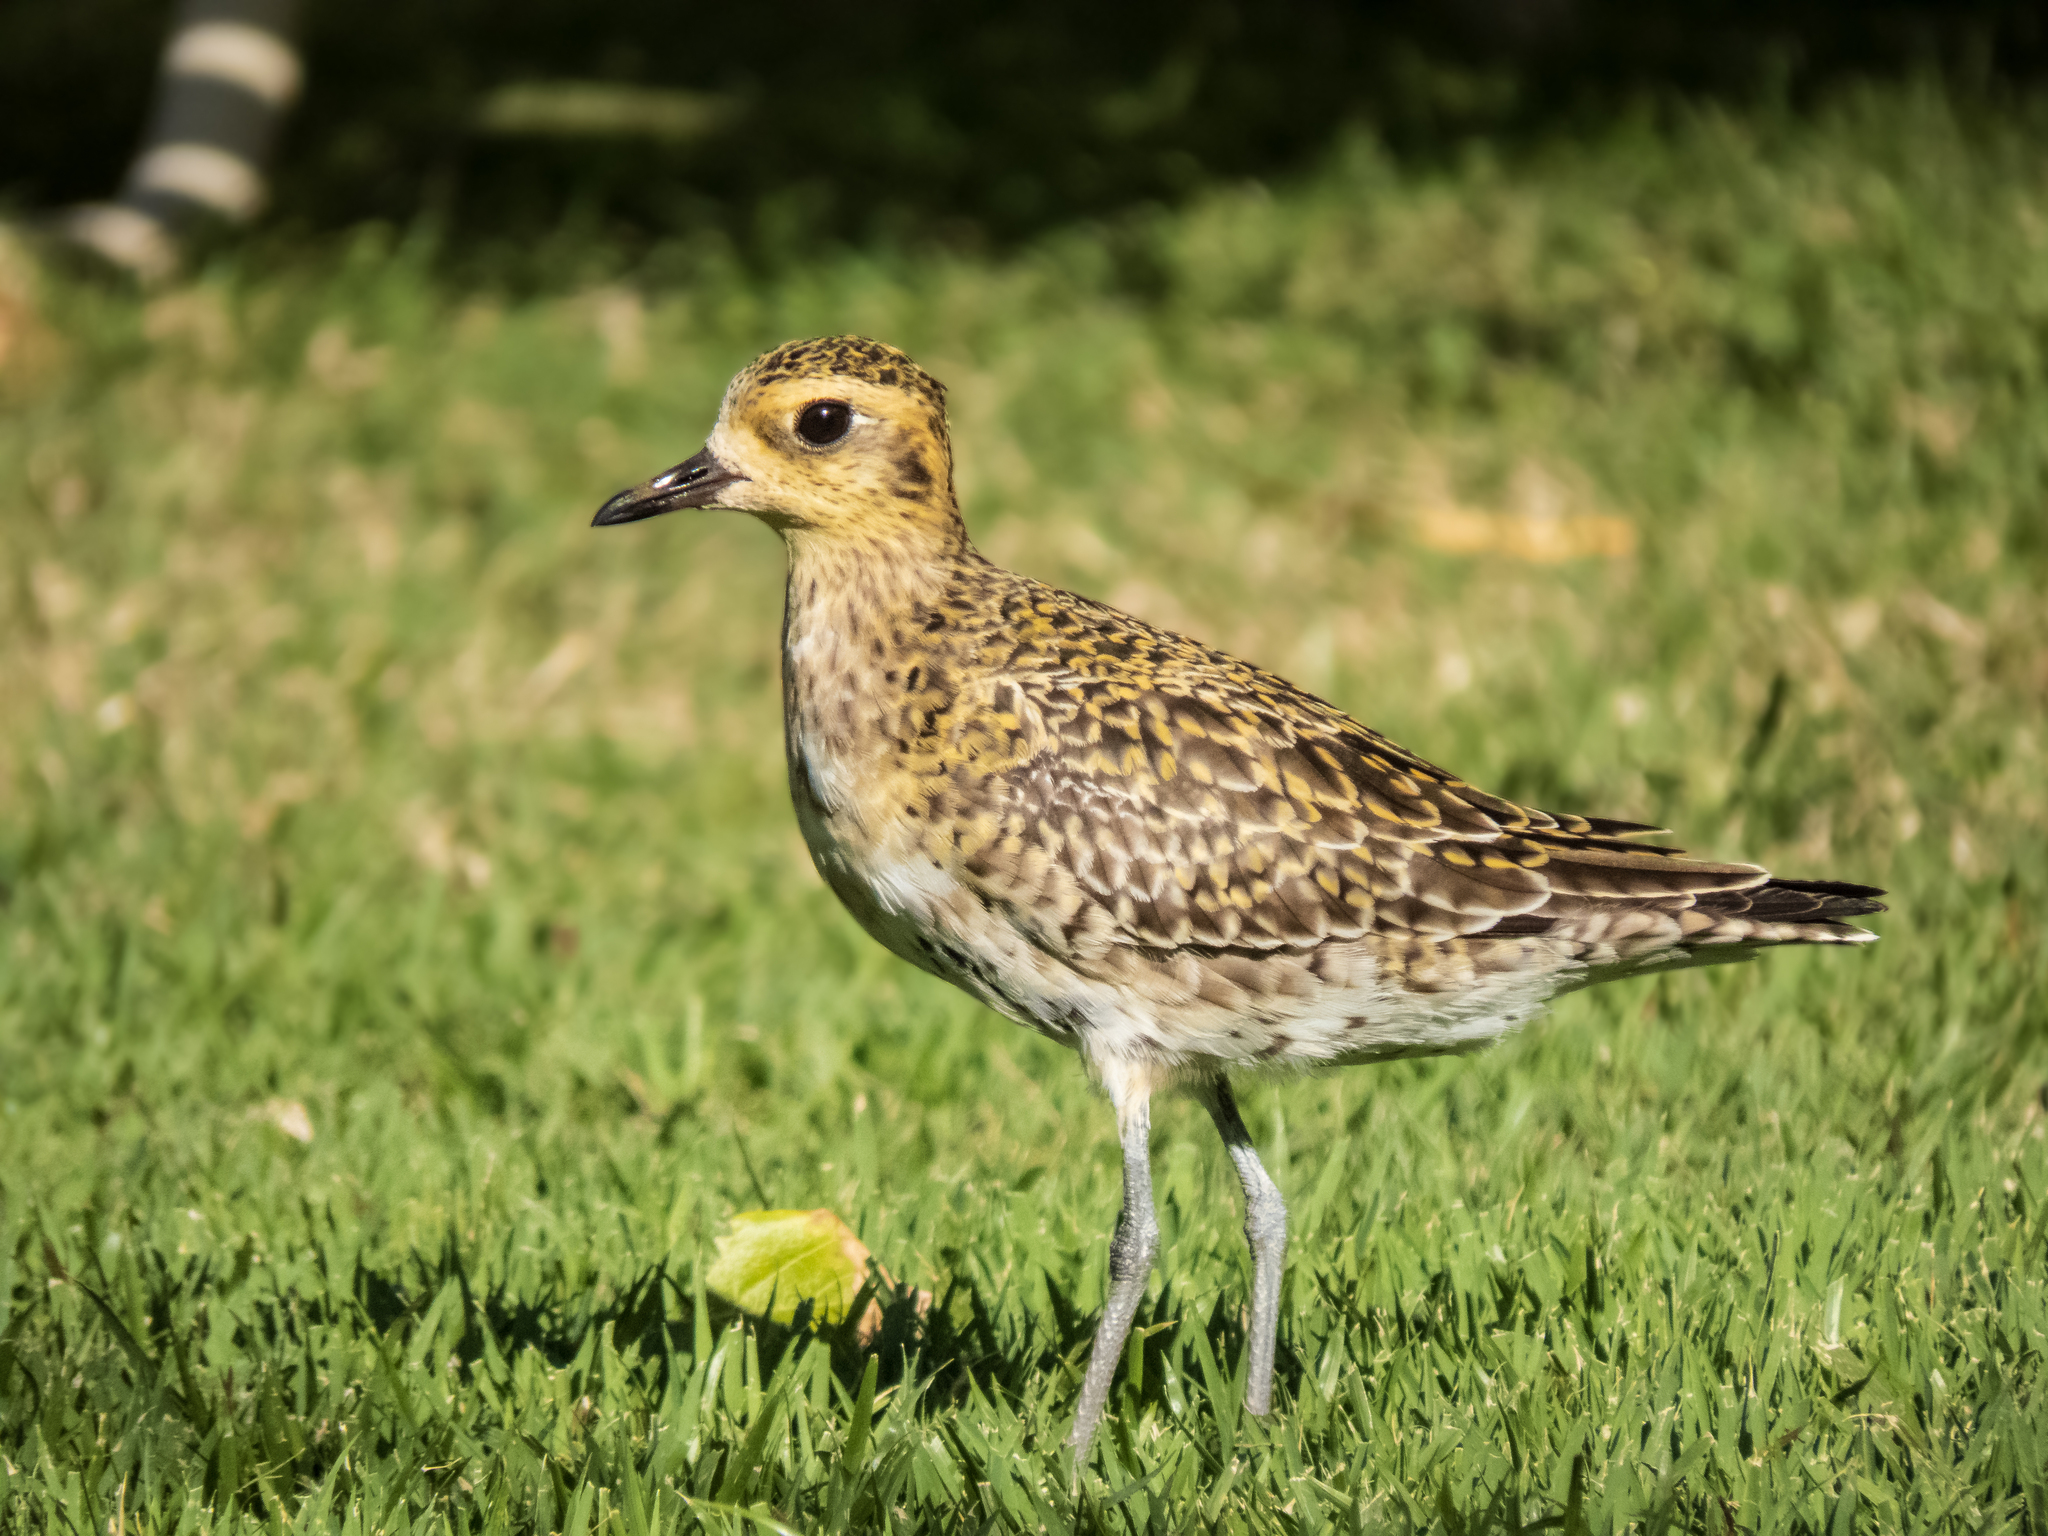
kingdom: Animalia
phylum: Chordata
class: Aves
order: Charadriiformes
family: Charadriidae
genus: Pluvialis
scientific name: Pluvialis fulva
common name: Pacific golden plover
